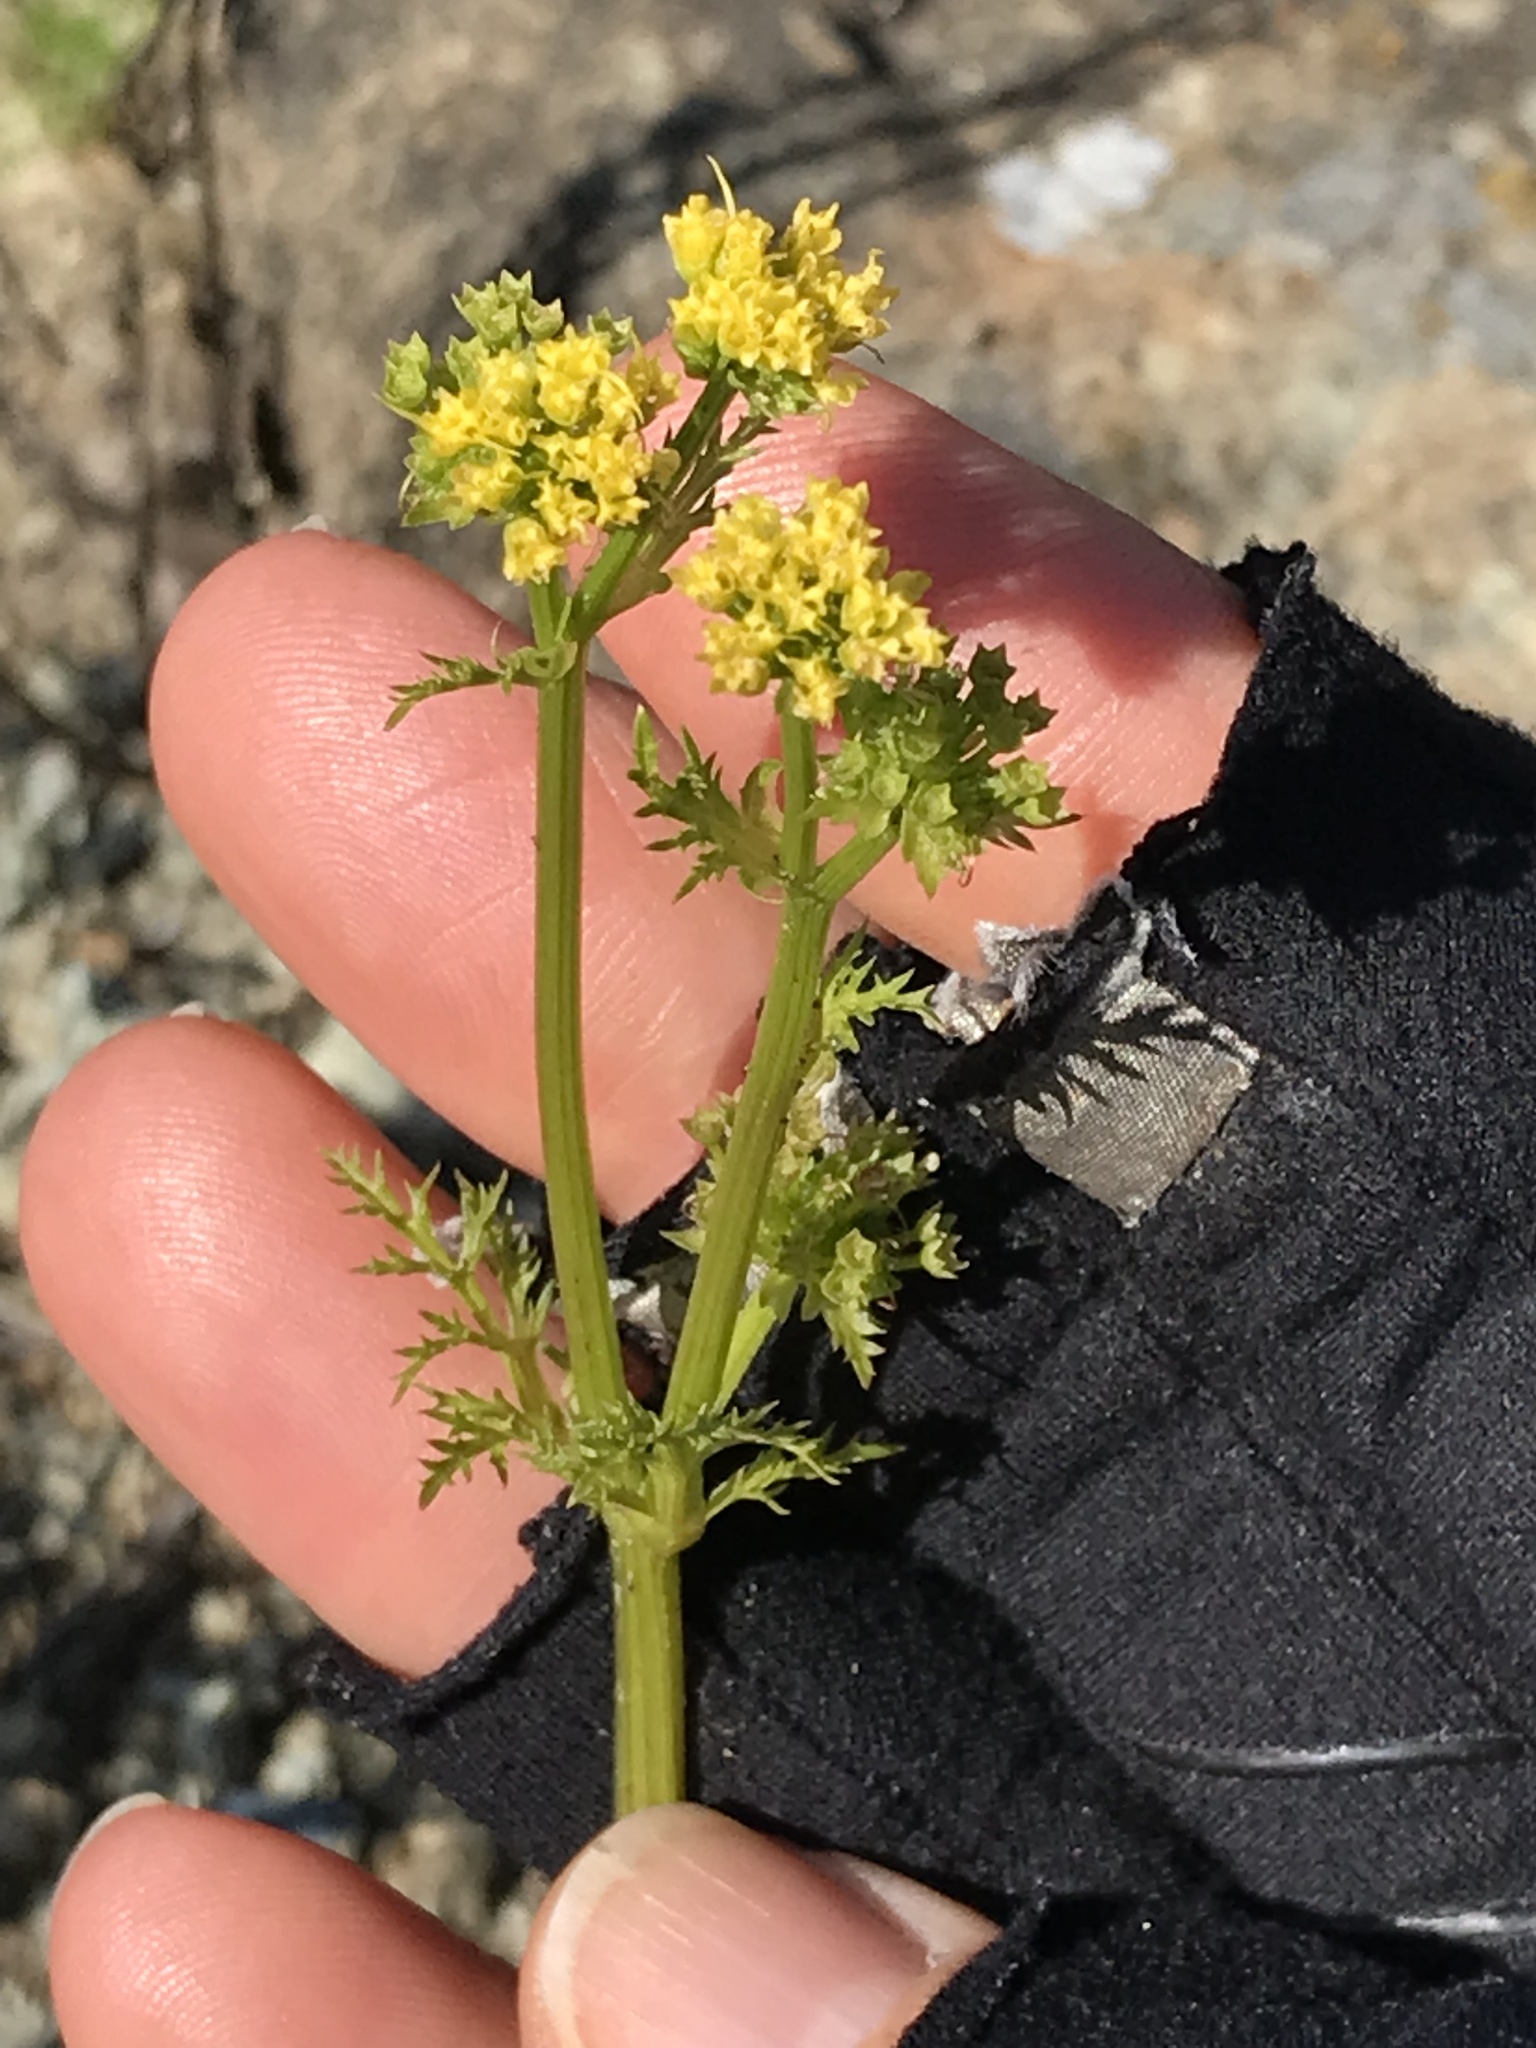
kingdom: Plantae
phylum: Tracheophyta
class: Magnoliopsida
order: Apiales
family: Apiaceae
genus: Sanicula
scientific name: Sanicula tuberosa
